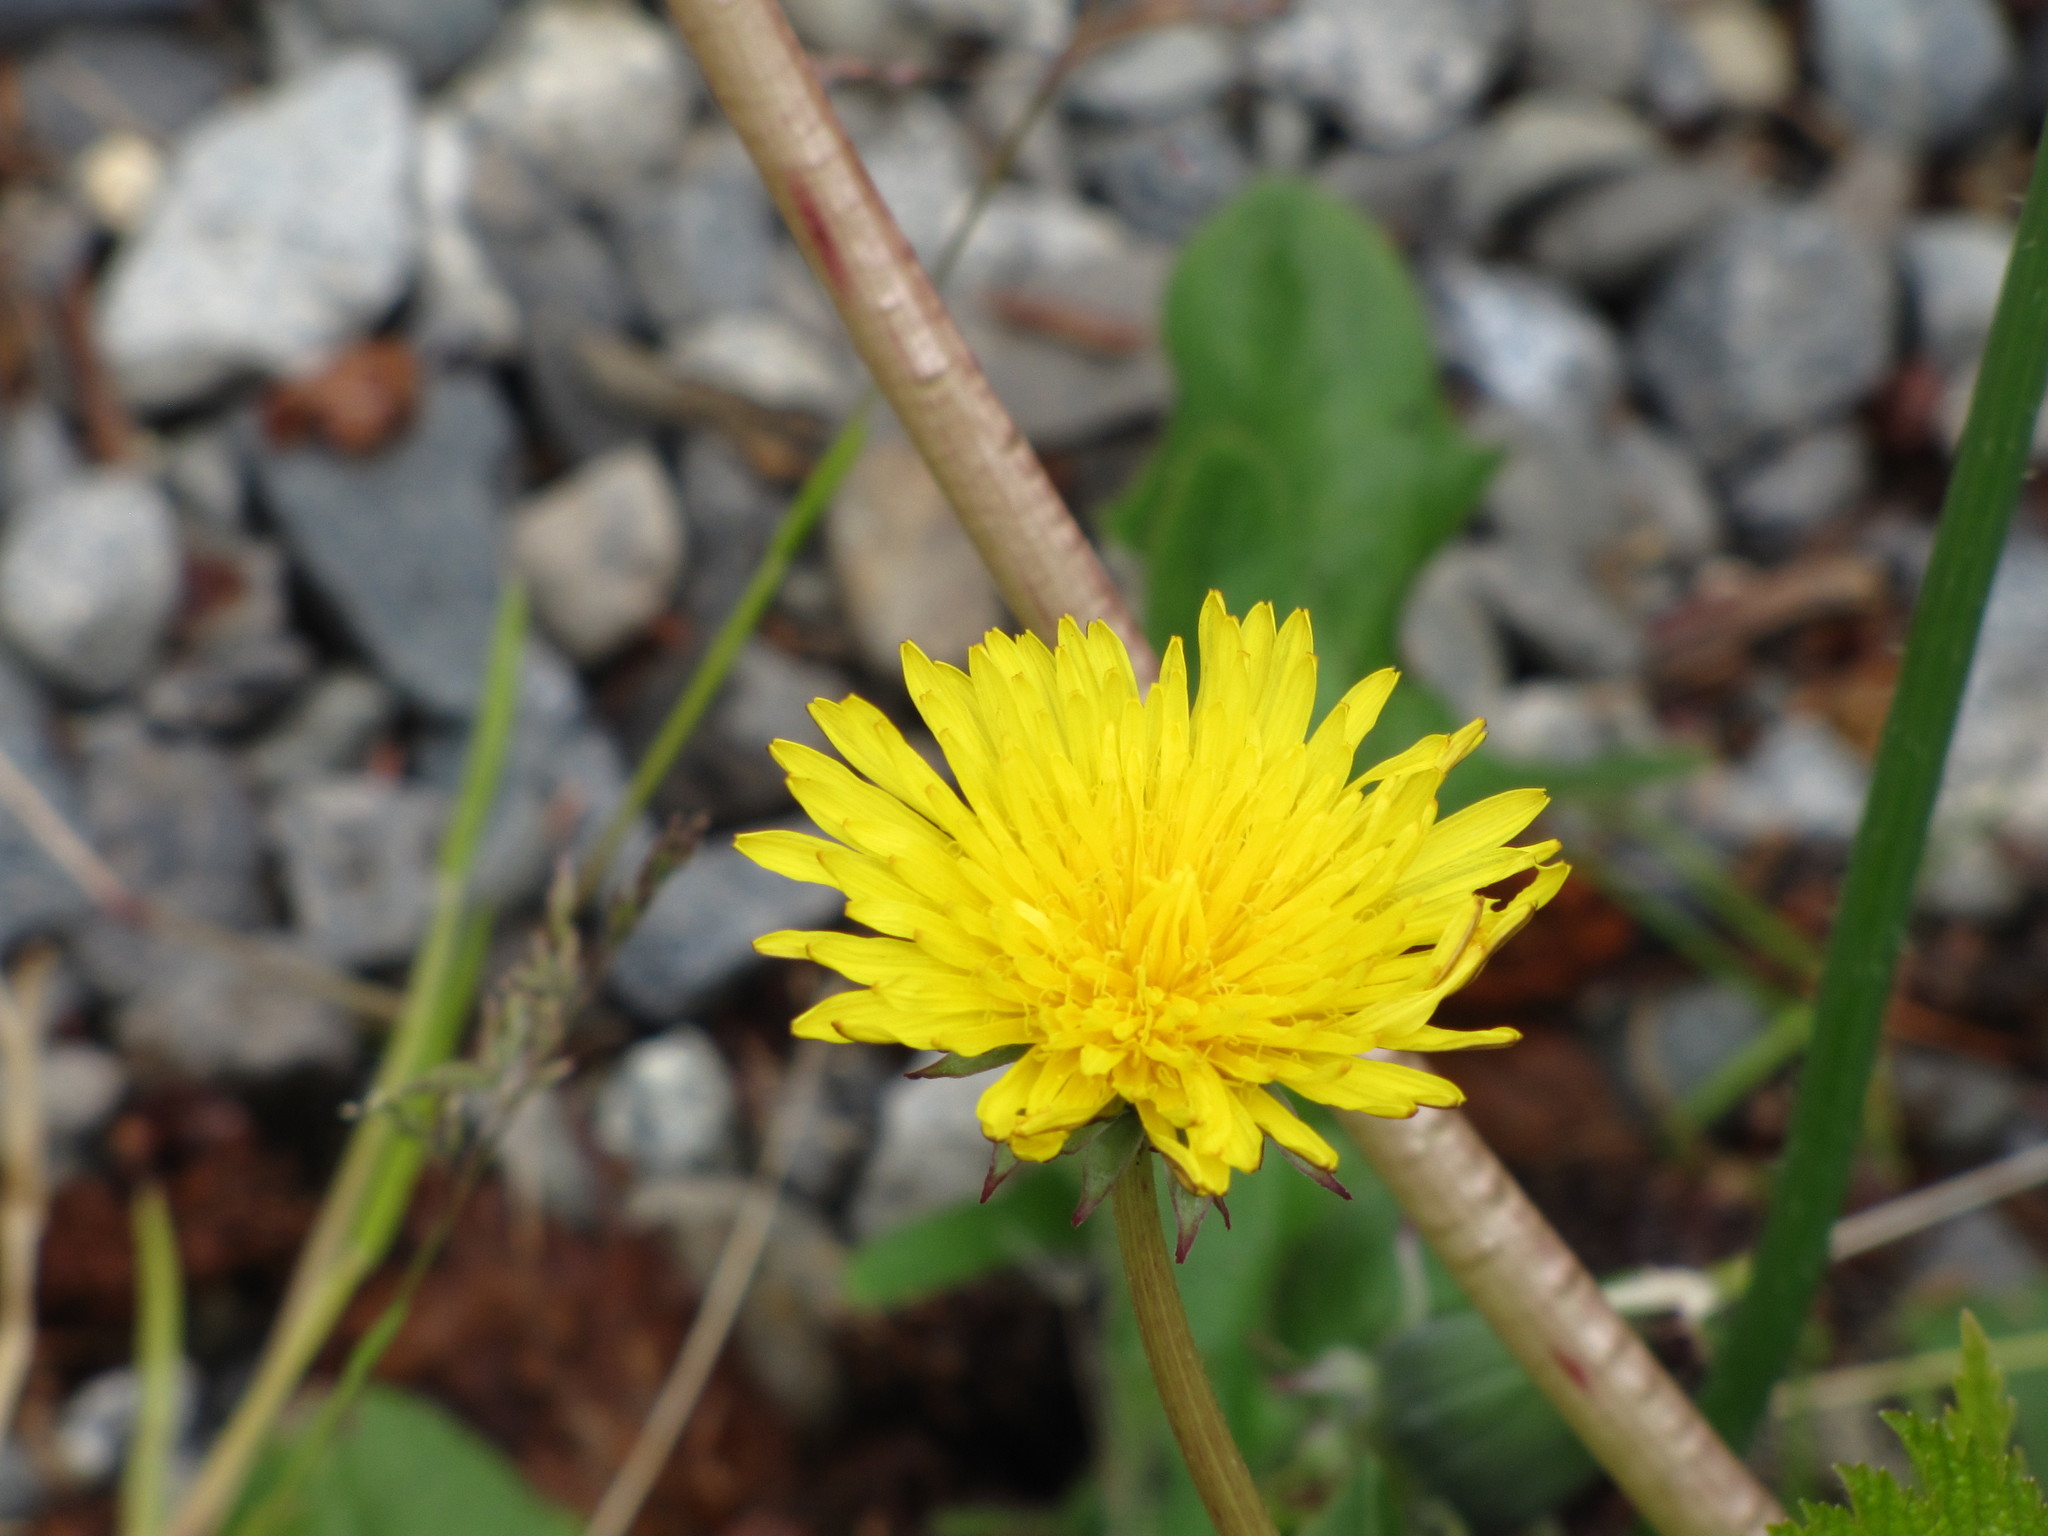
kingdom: Plantae
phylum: Tracheophyta
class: Magnoliopsida
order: Asterales
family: Asteraceae
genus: Taraxacum
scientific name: Taraxacum officinale
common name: Common dandelion
